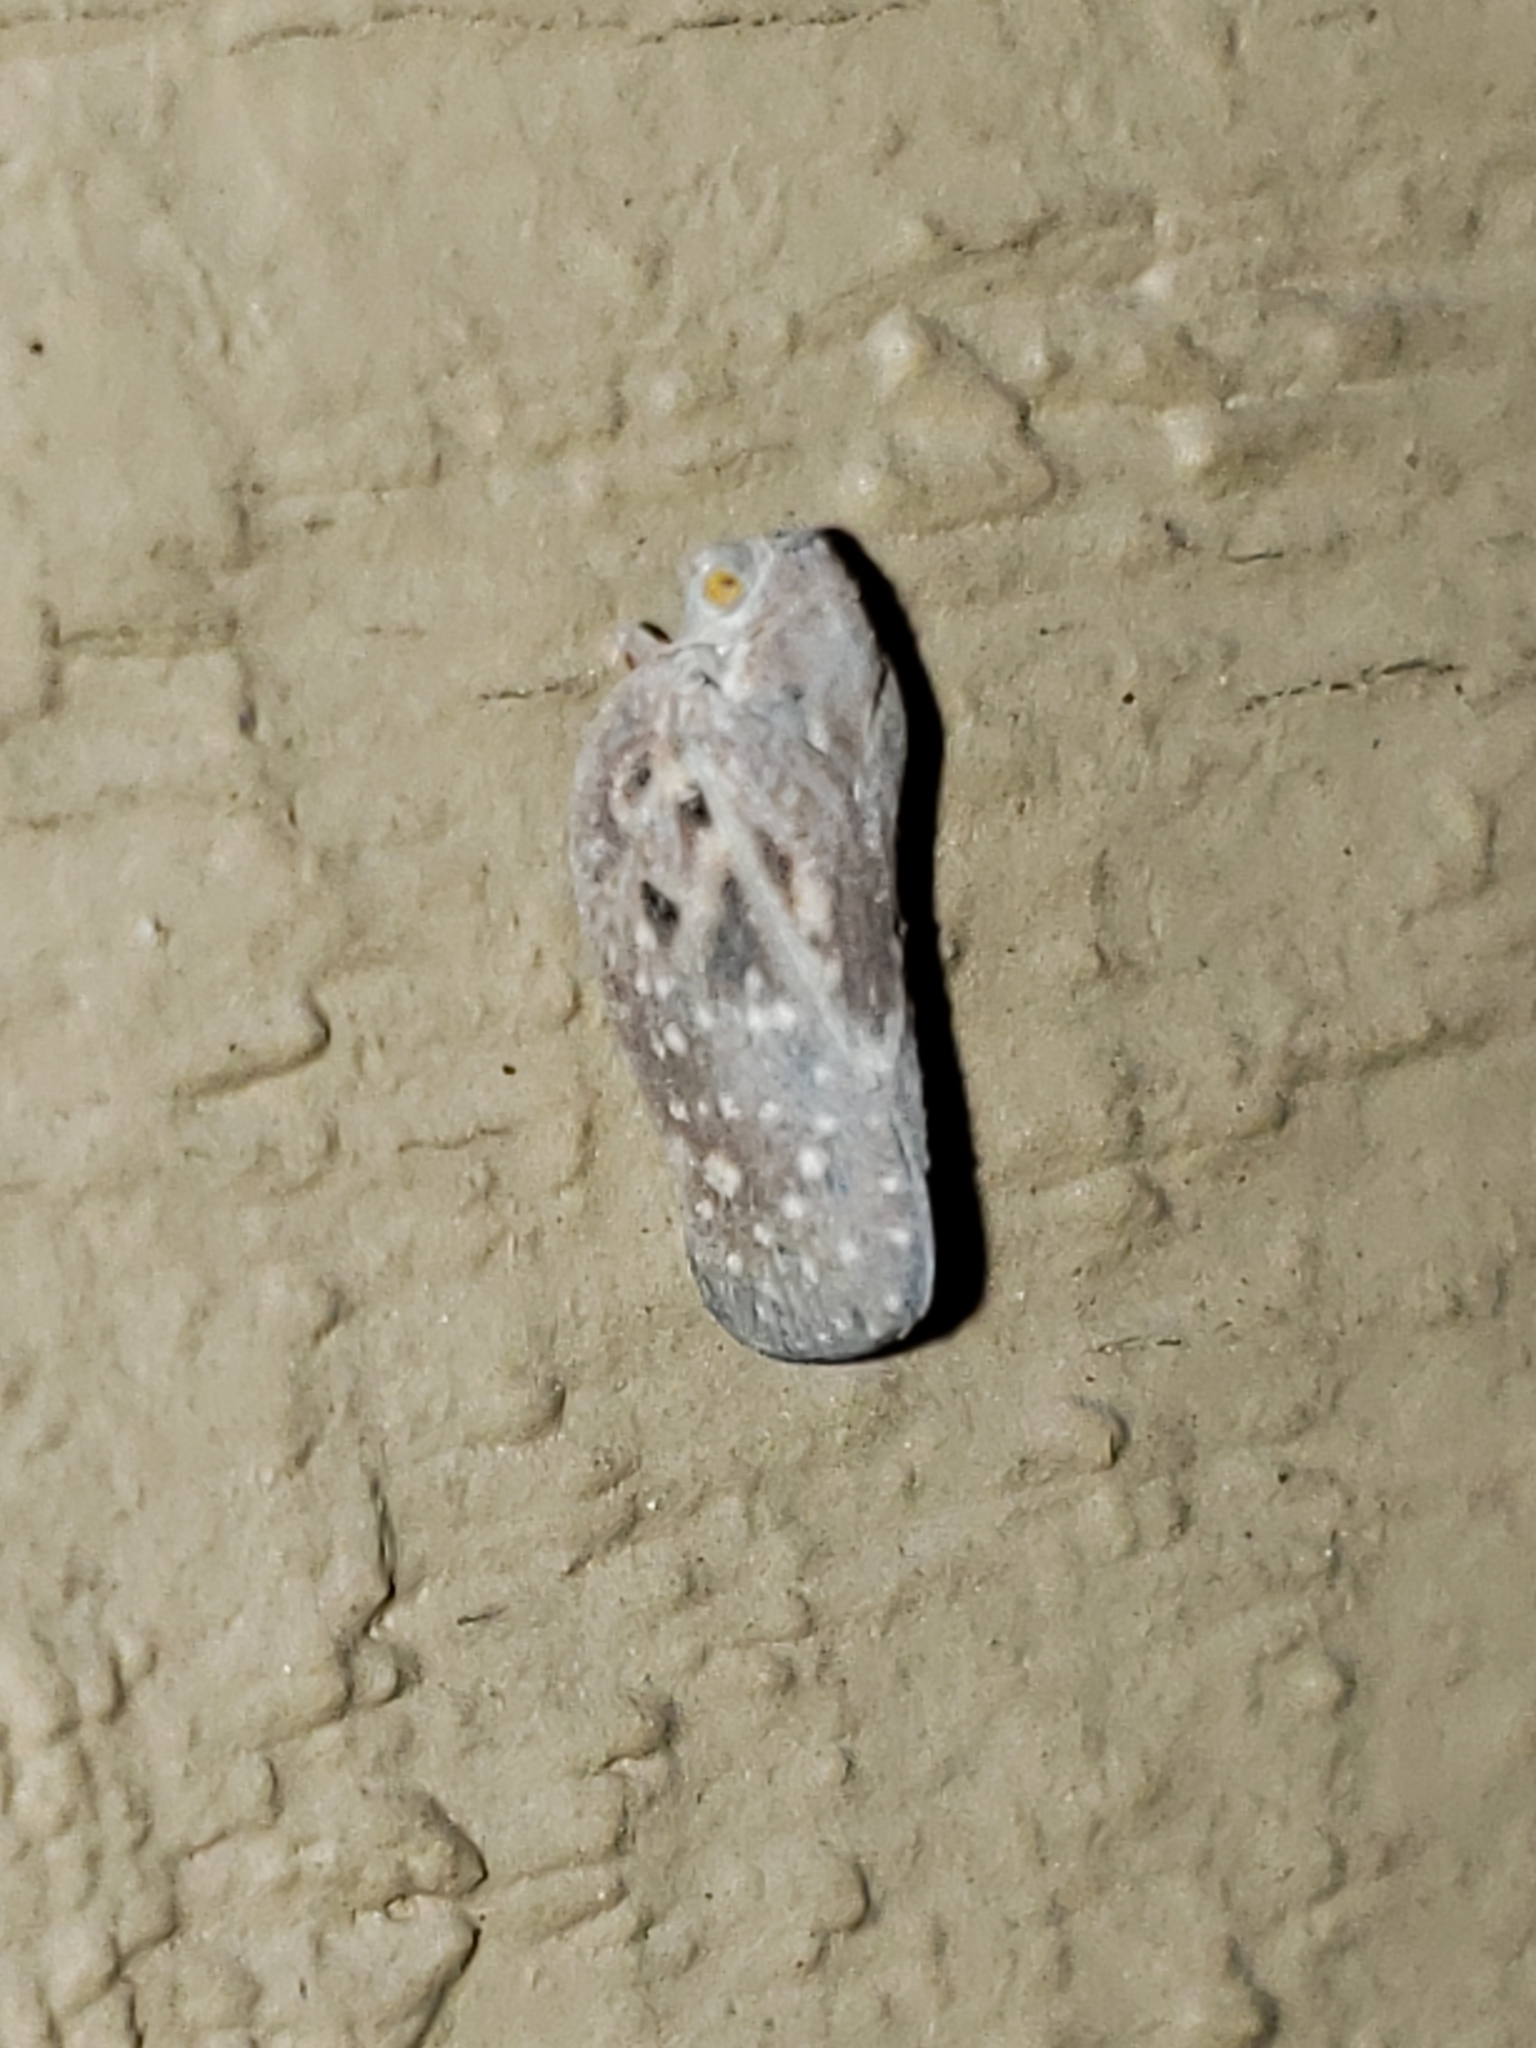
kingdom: Animalia
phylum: Arthropoda
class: Insecta
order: Hemiptera
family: Flatidae
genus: Metcalfa
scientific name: Metcalfa pruinosa
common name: Citrus flatid planthopper
